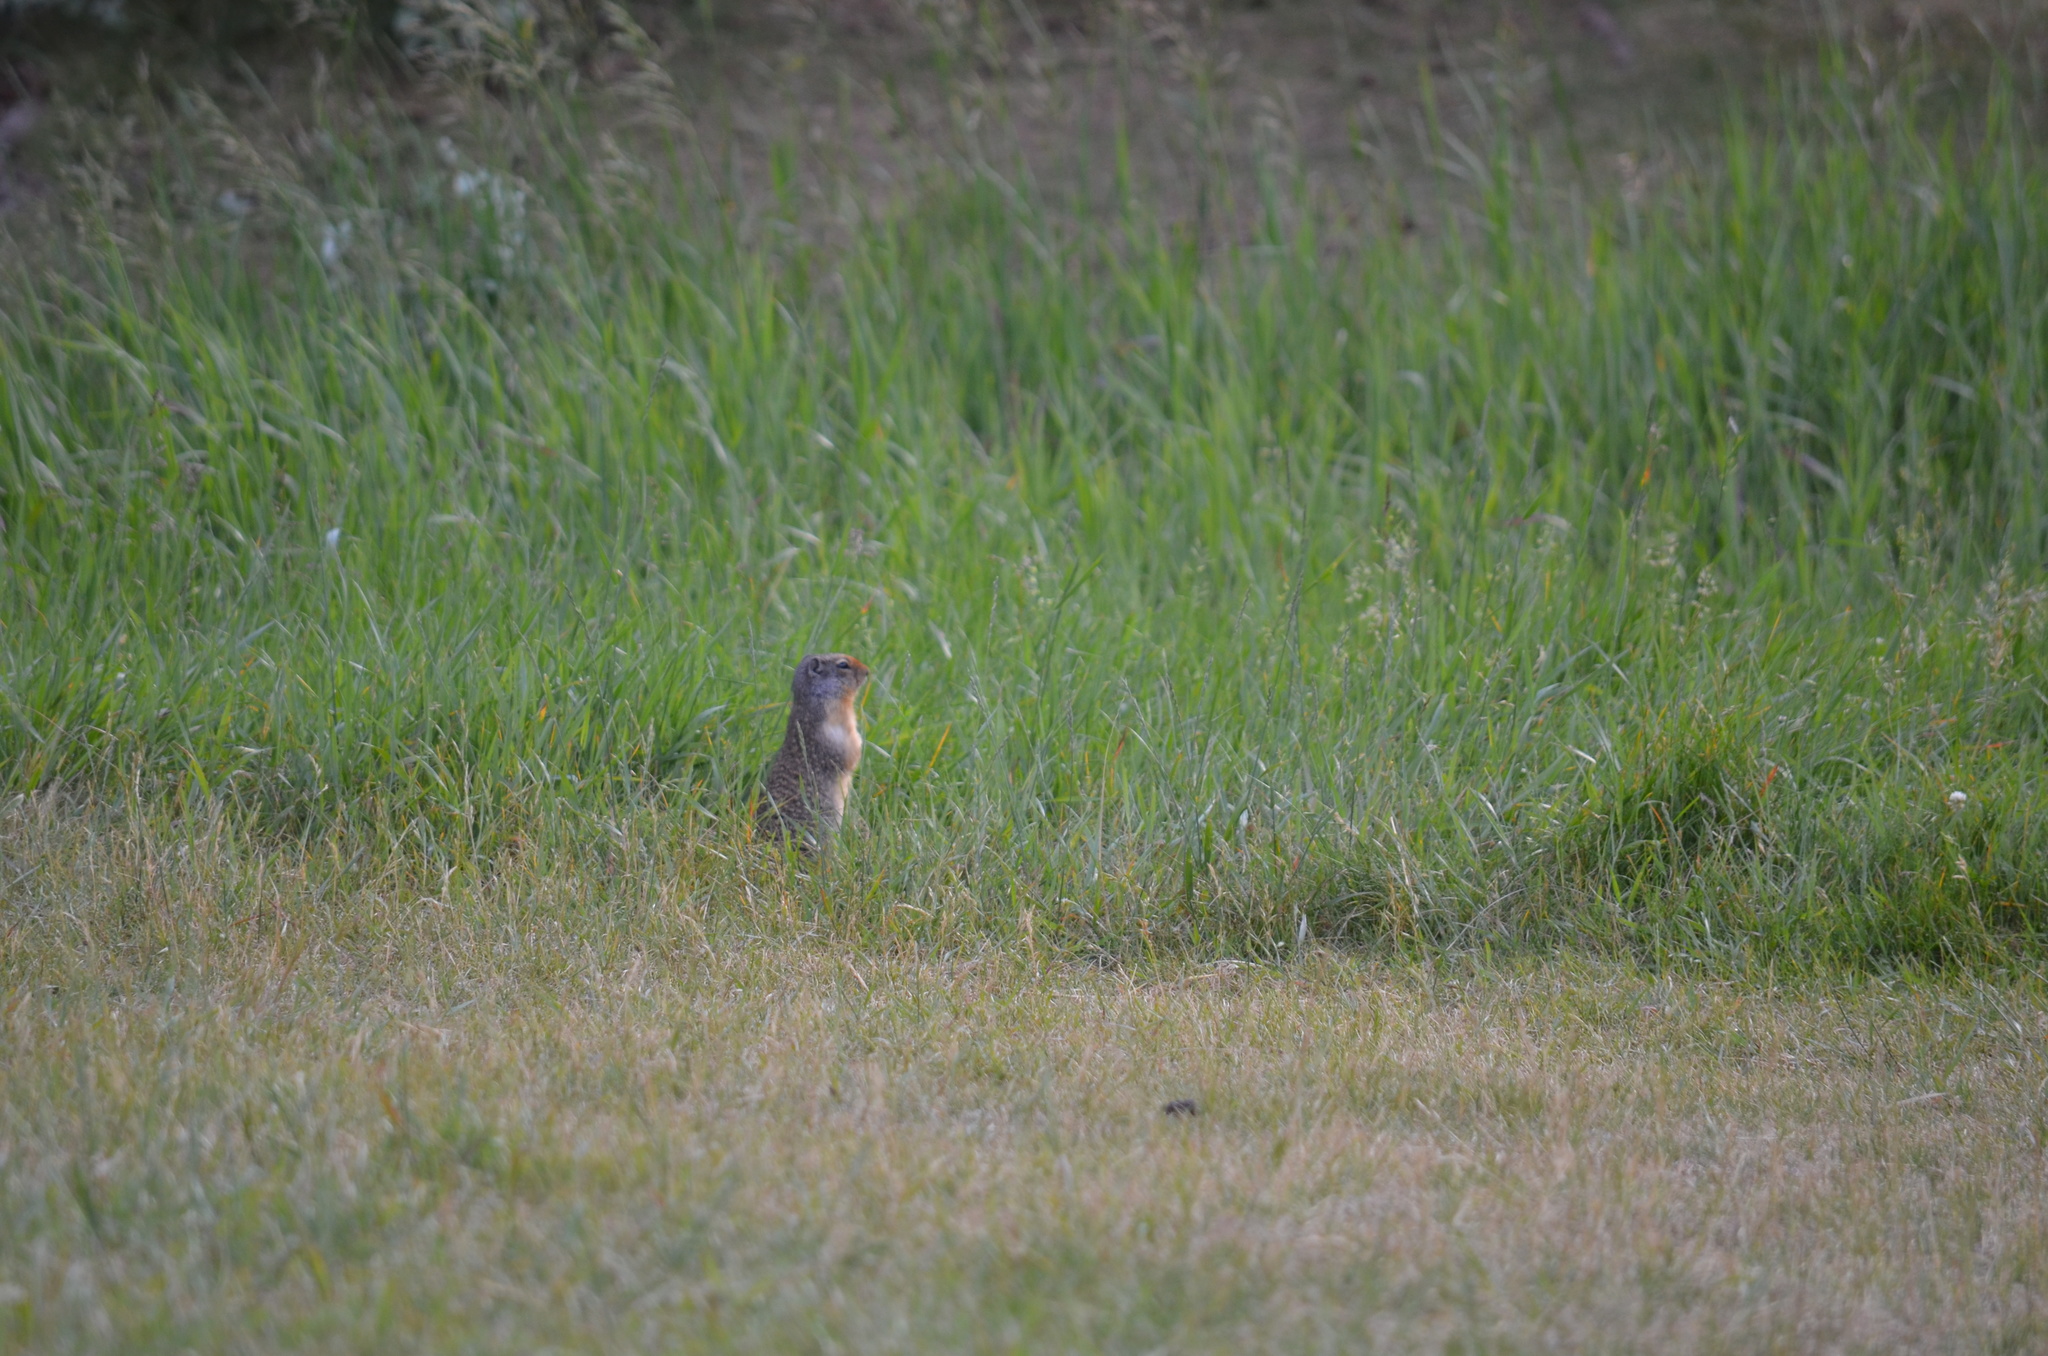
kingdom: Animalia
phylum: Chordata
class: Mammalia
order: Rodentia
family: Sciuridae
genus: Urocitellus
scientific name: Urocitellus columbianus
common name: Columbian ground squirrel
